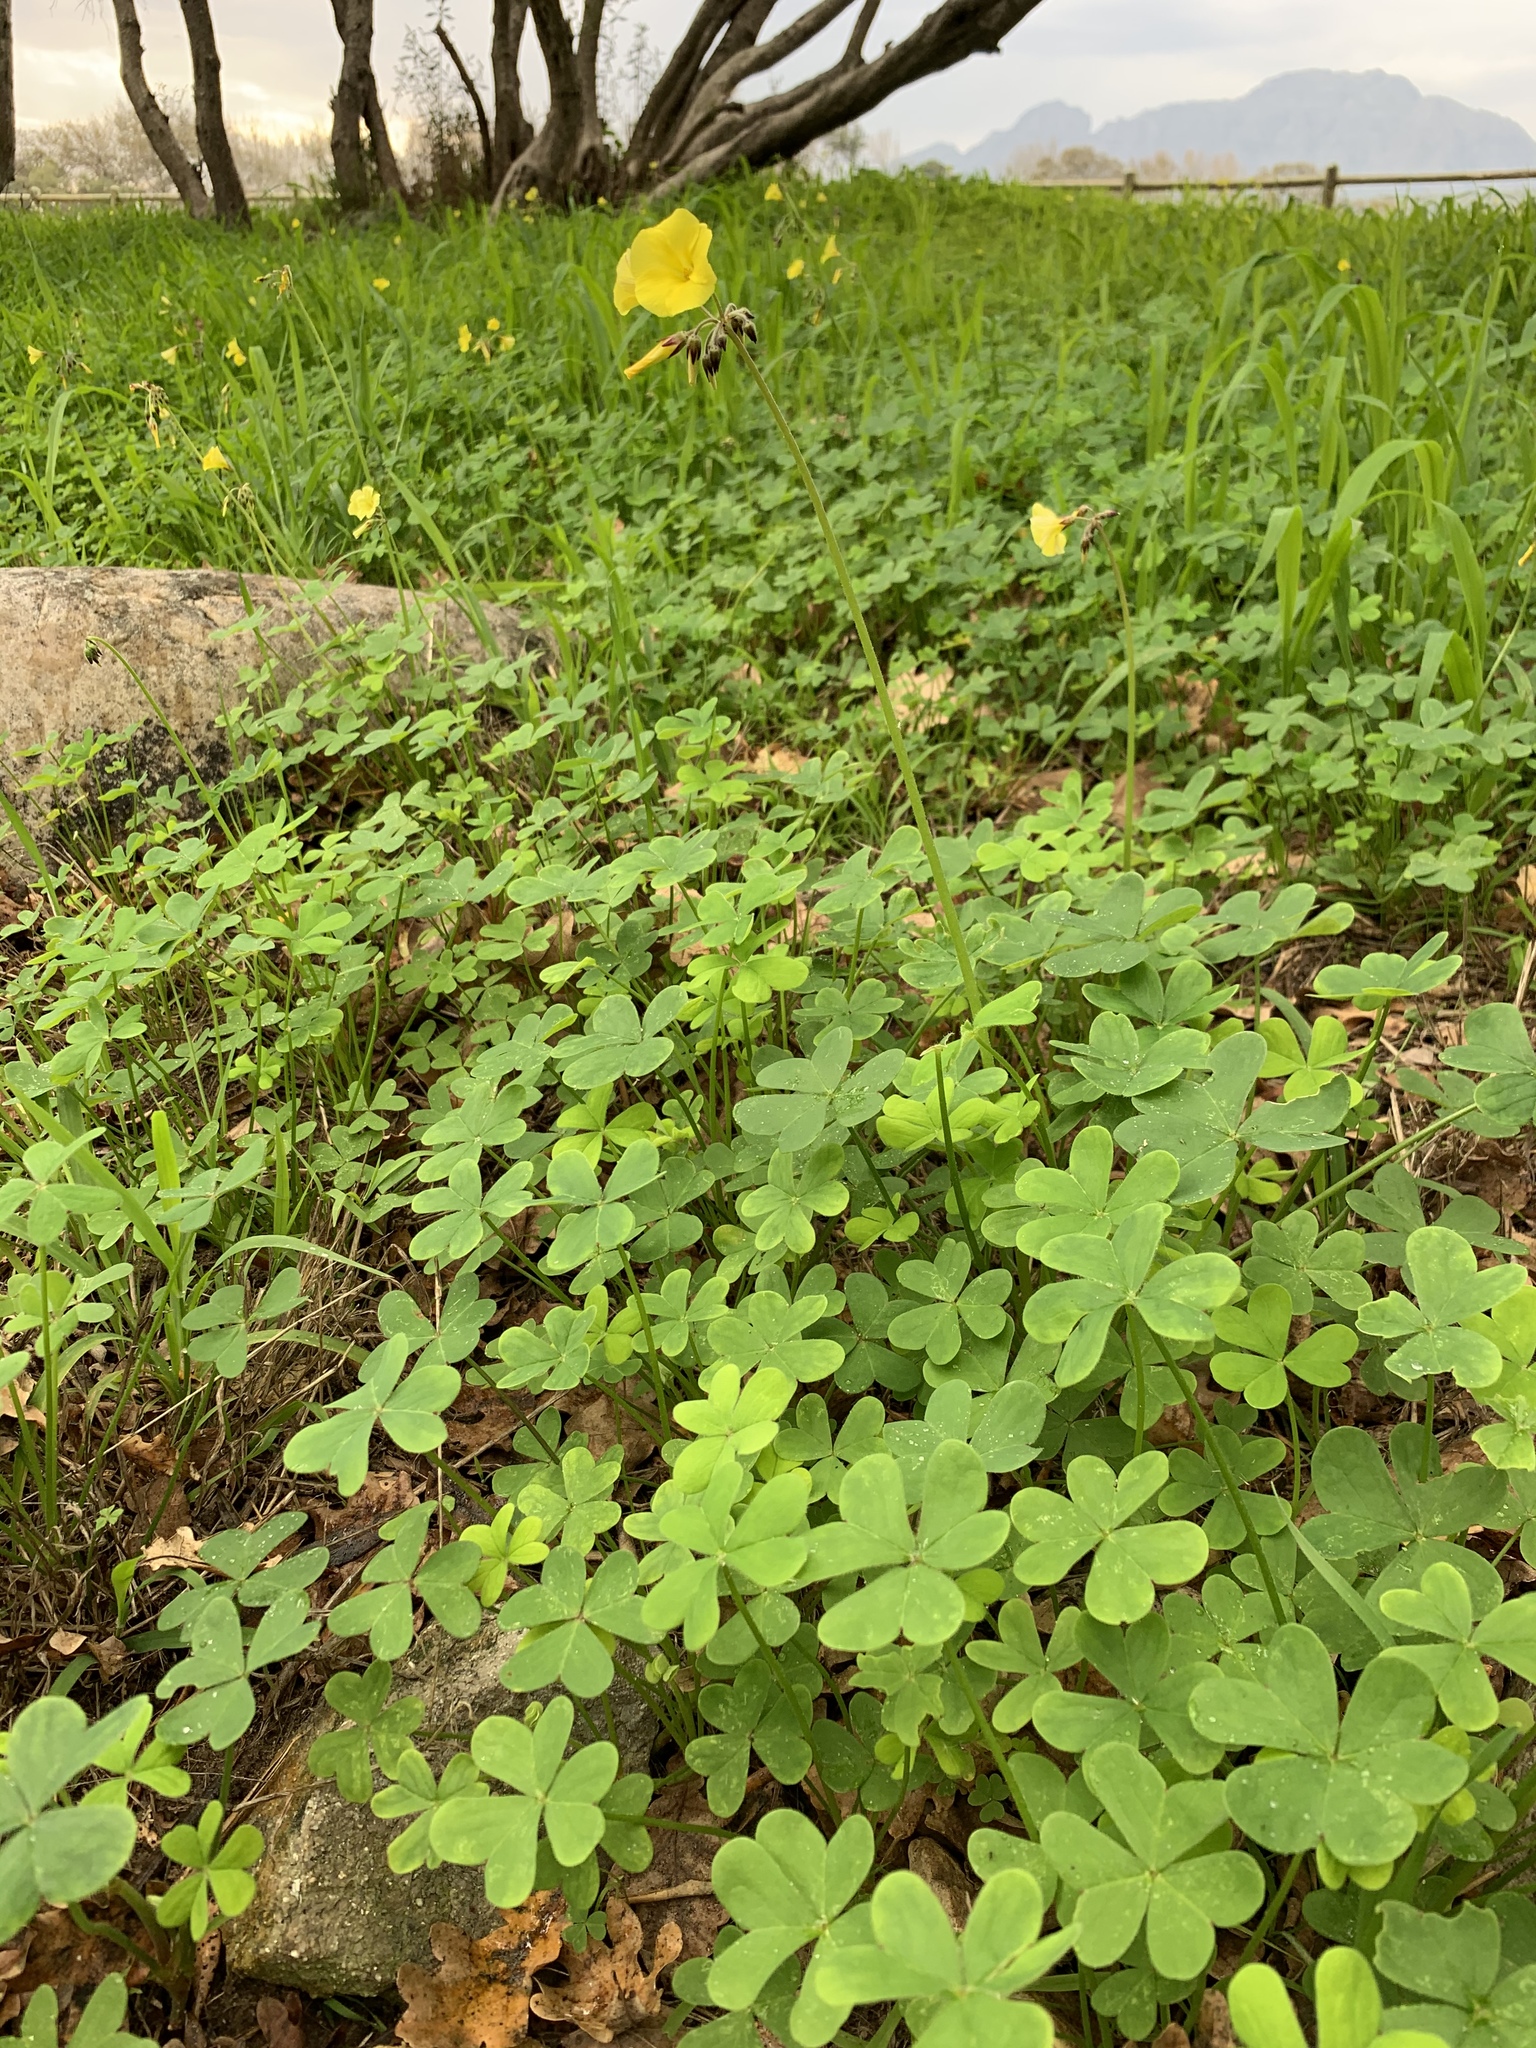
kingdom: Plantae
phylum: Tracheophyta
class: Magnoliopsida
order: Oxalidales
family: Oxalidaceae
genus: Oxalis
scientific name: Oxalis pes-caprae
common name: Bermuda-buttercup
